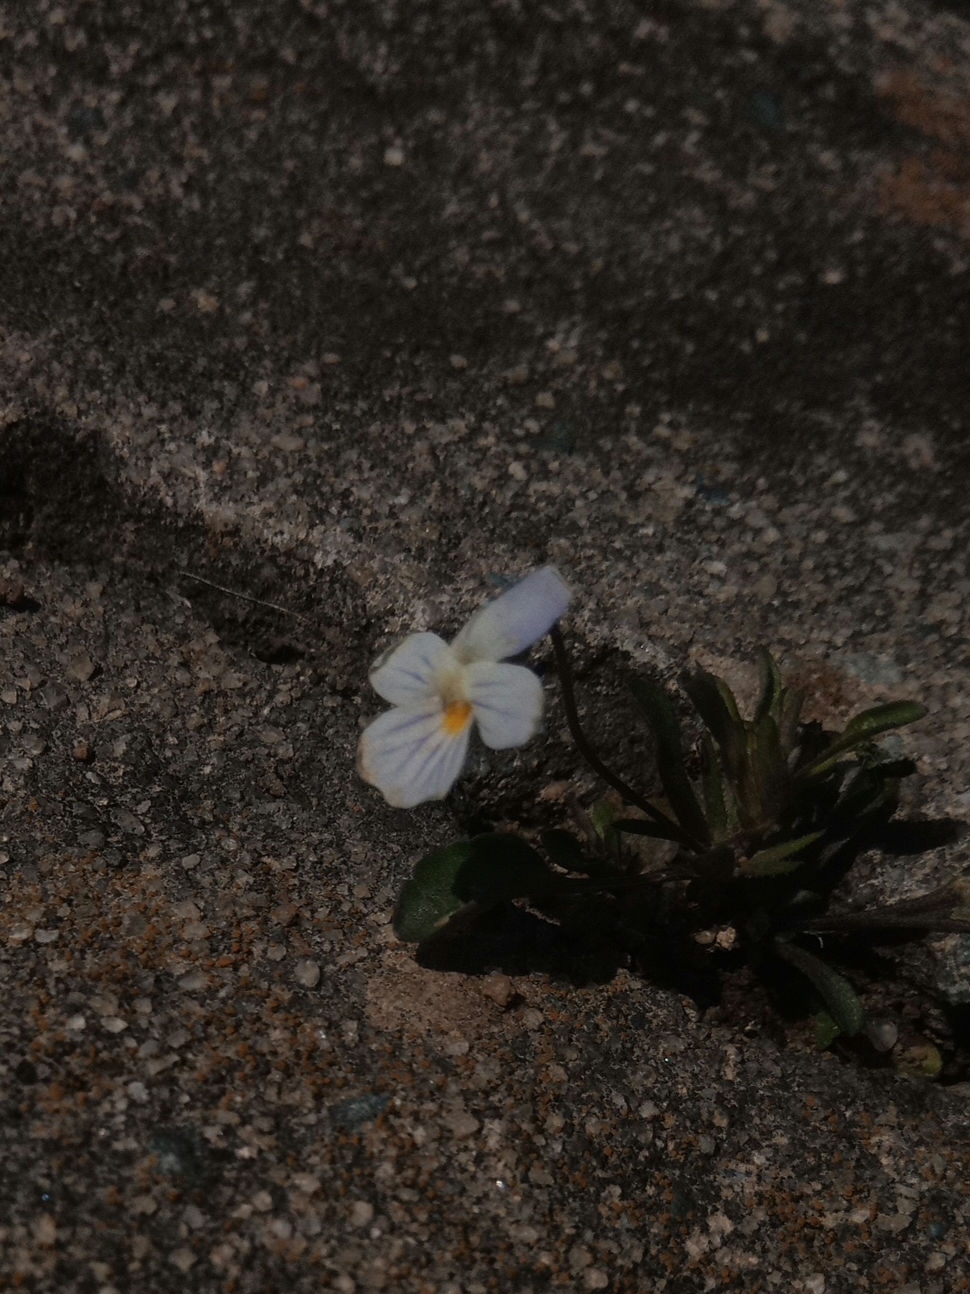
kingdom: Plantae
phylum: Tracheophyta
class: Magnoliopsida
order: Malpighiales
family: Violaceae
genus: Viola
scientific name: Viola rafinesquei
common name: American field pansy
